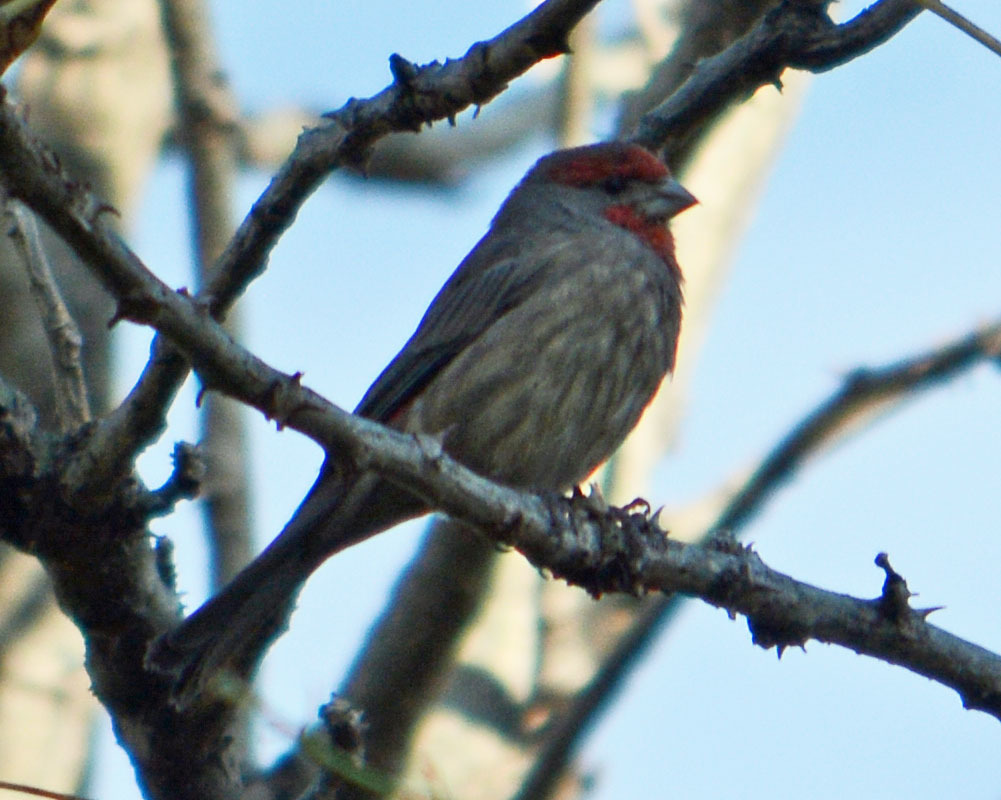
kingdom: Animalia
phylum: Chordata
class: Aves
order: Passeriformes
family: Fringillidae
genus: Haemorhous
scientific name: Haemorhous mexicanus
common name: House finch
